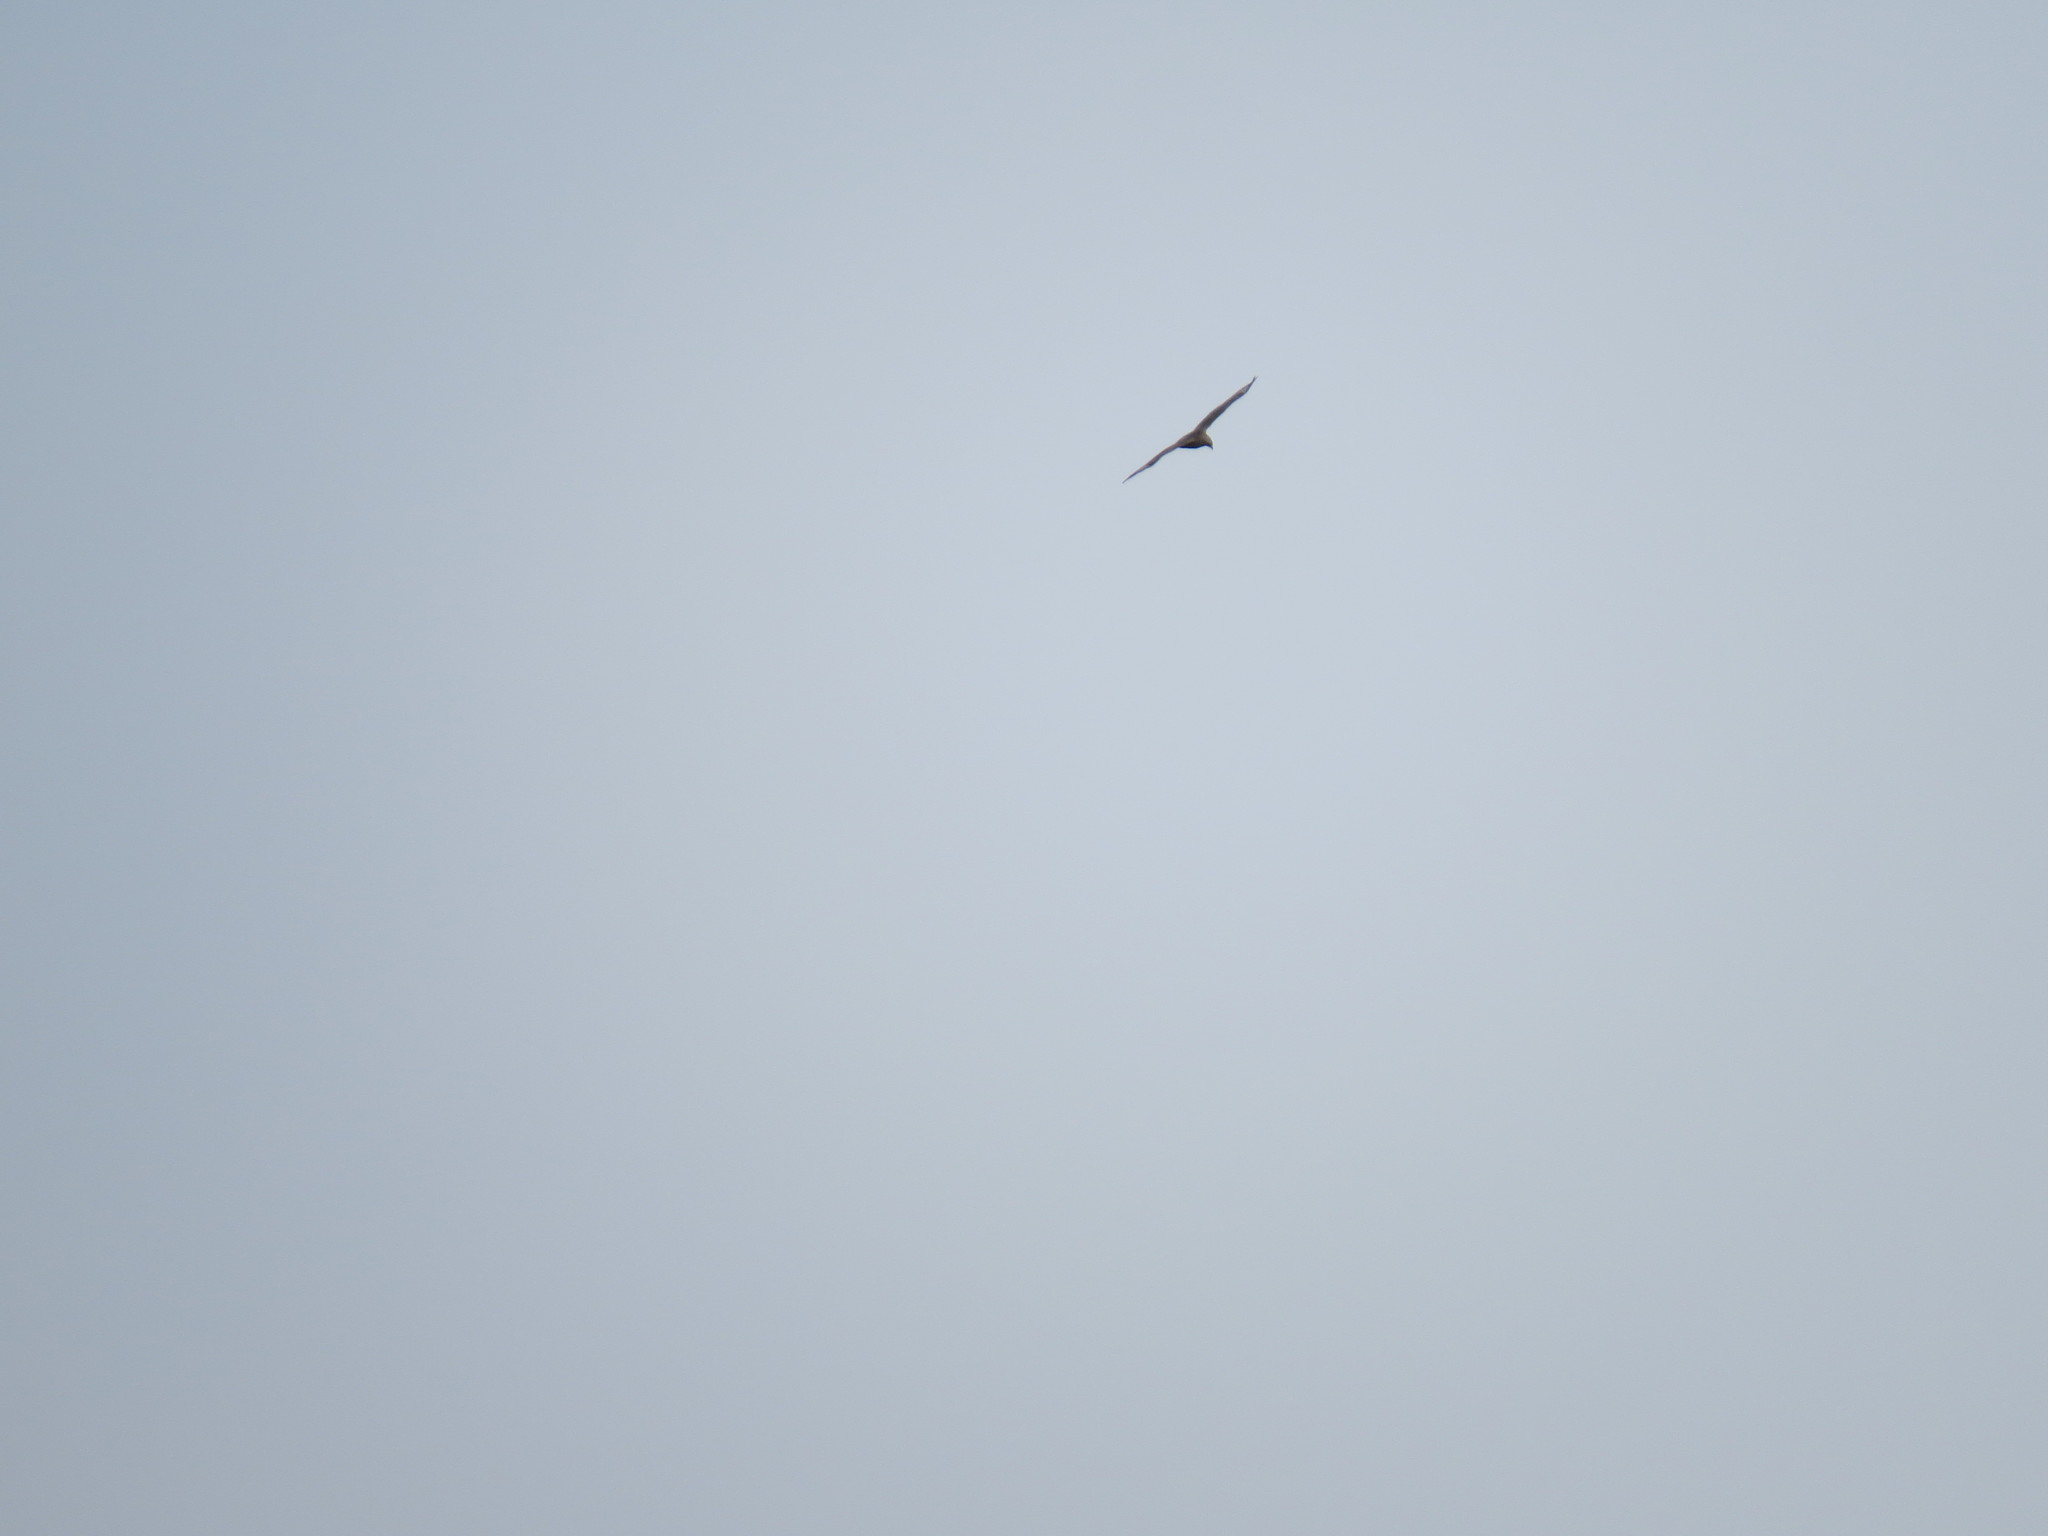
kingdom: Animalia
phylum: Chordata
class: Aves
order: Accipitriformes
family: Accipitridae
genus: Buteo
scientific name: Buteo buteo
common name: Common buzzard
